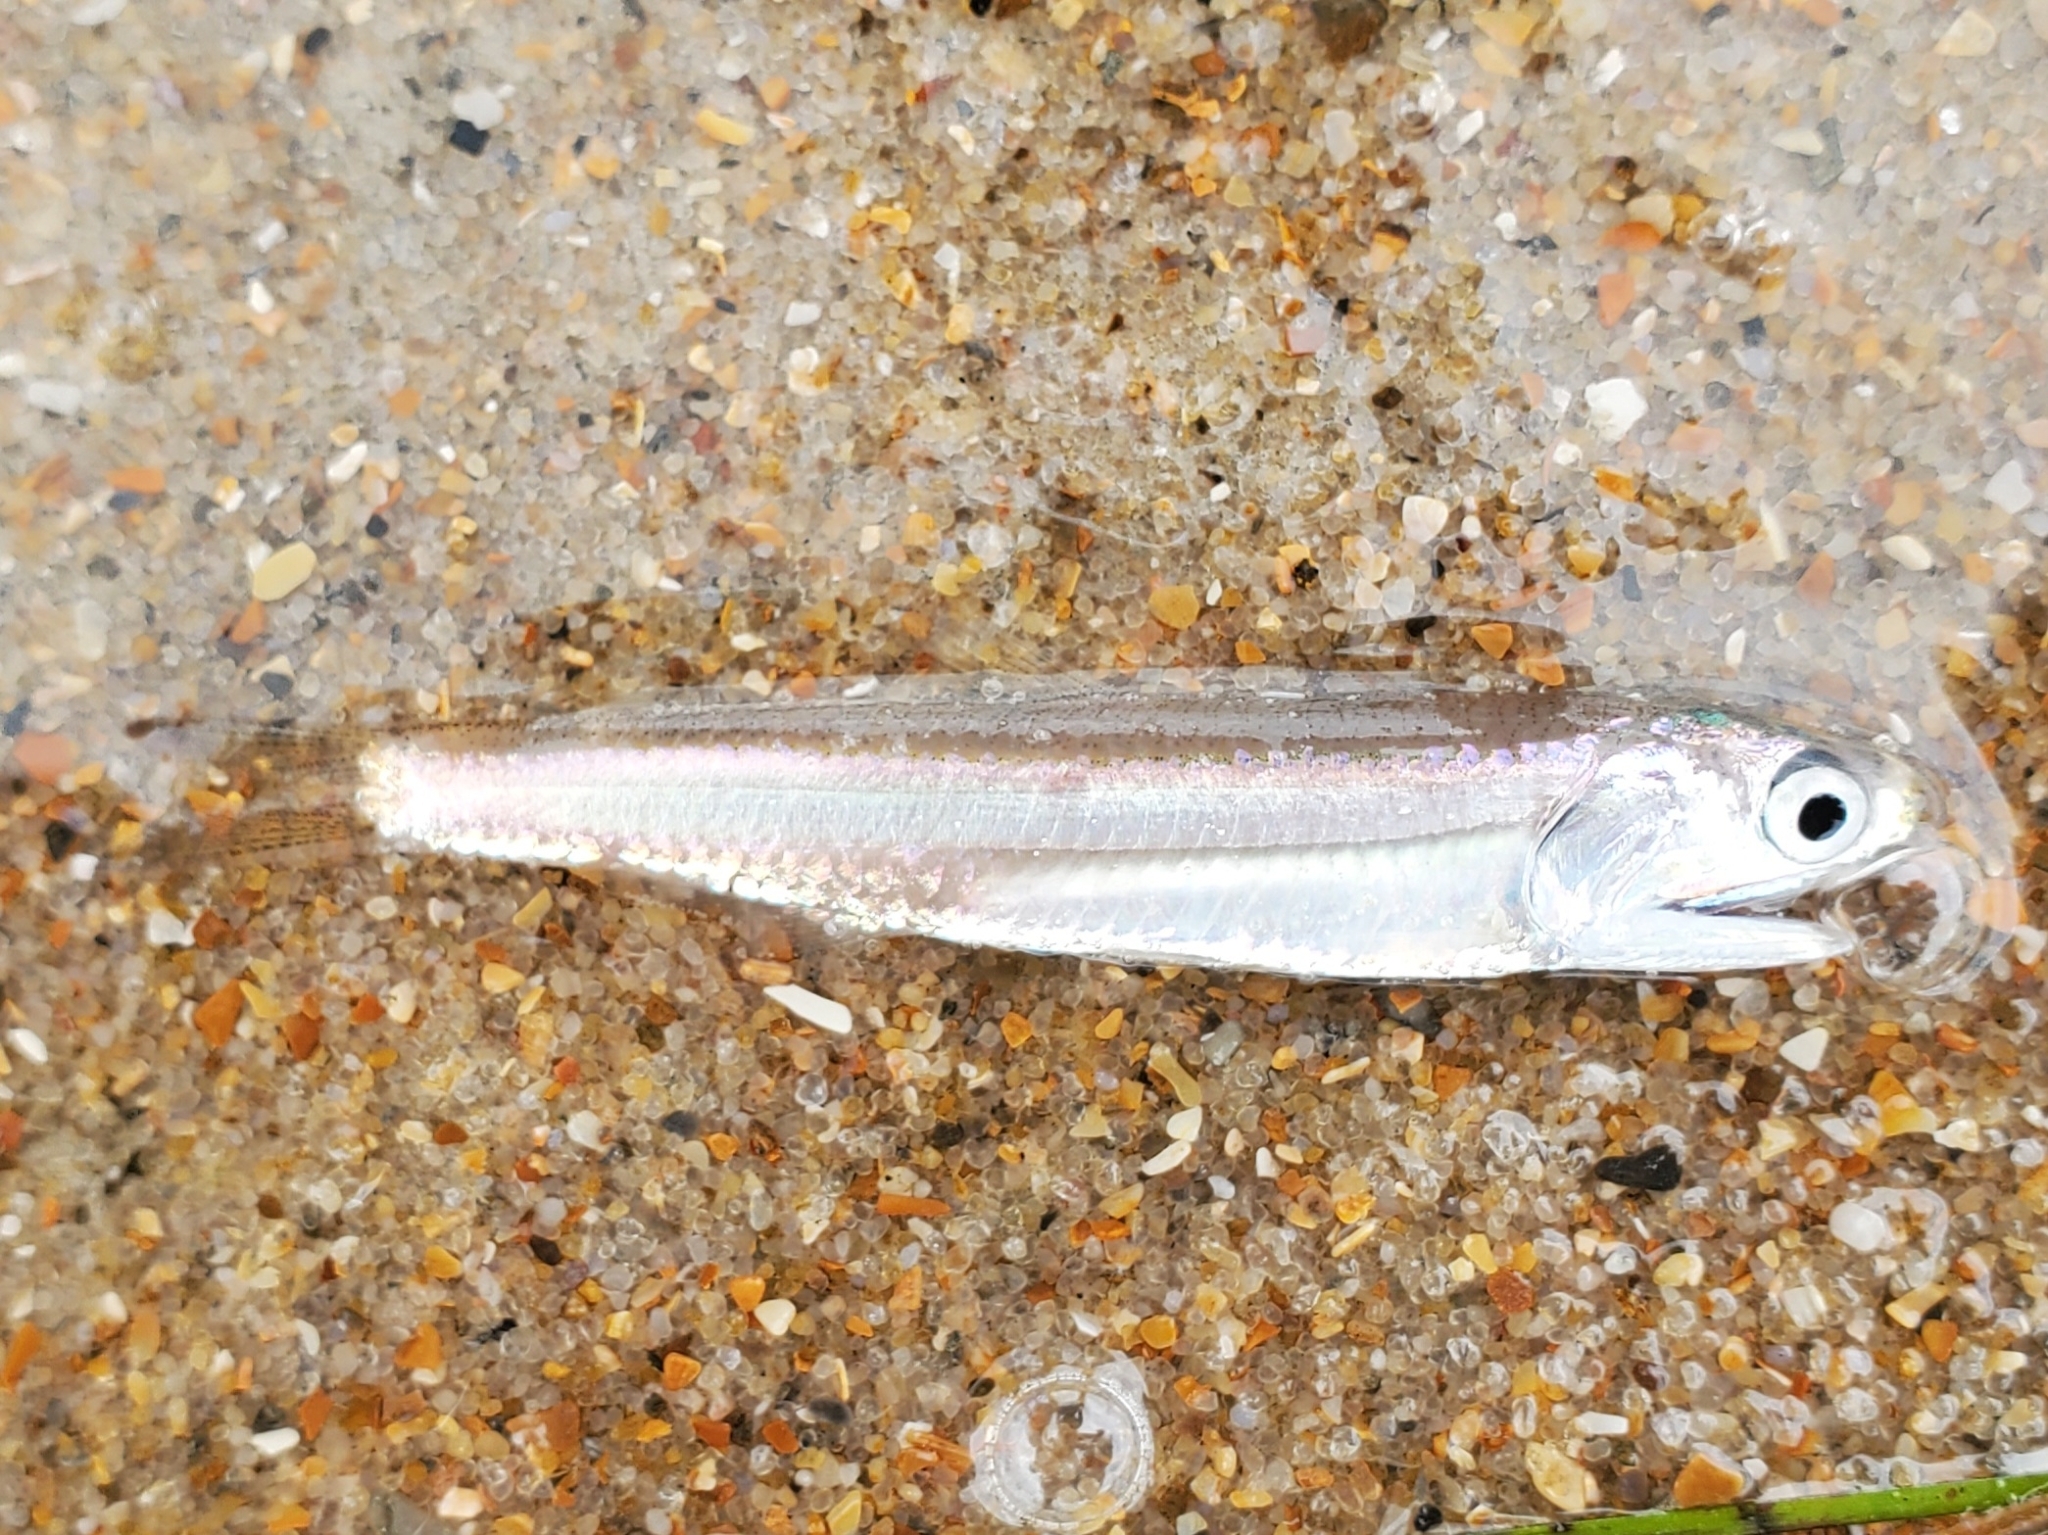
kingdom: Animalia
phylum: Chordata
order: Clupeiformes
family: Engraulidae
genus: Anchoa
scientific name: Anchoa mitchilli
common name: Bay anchovy
